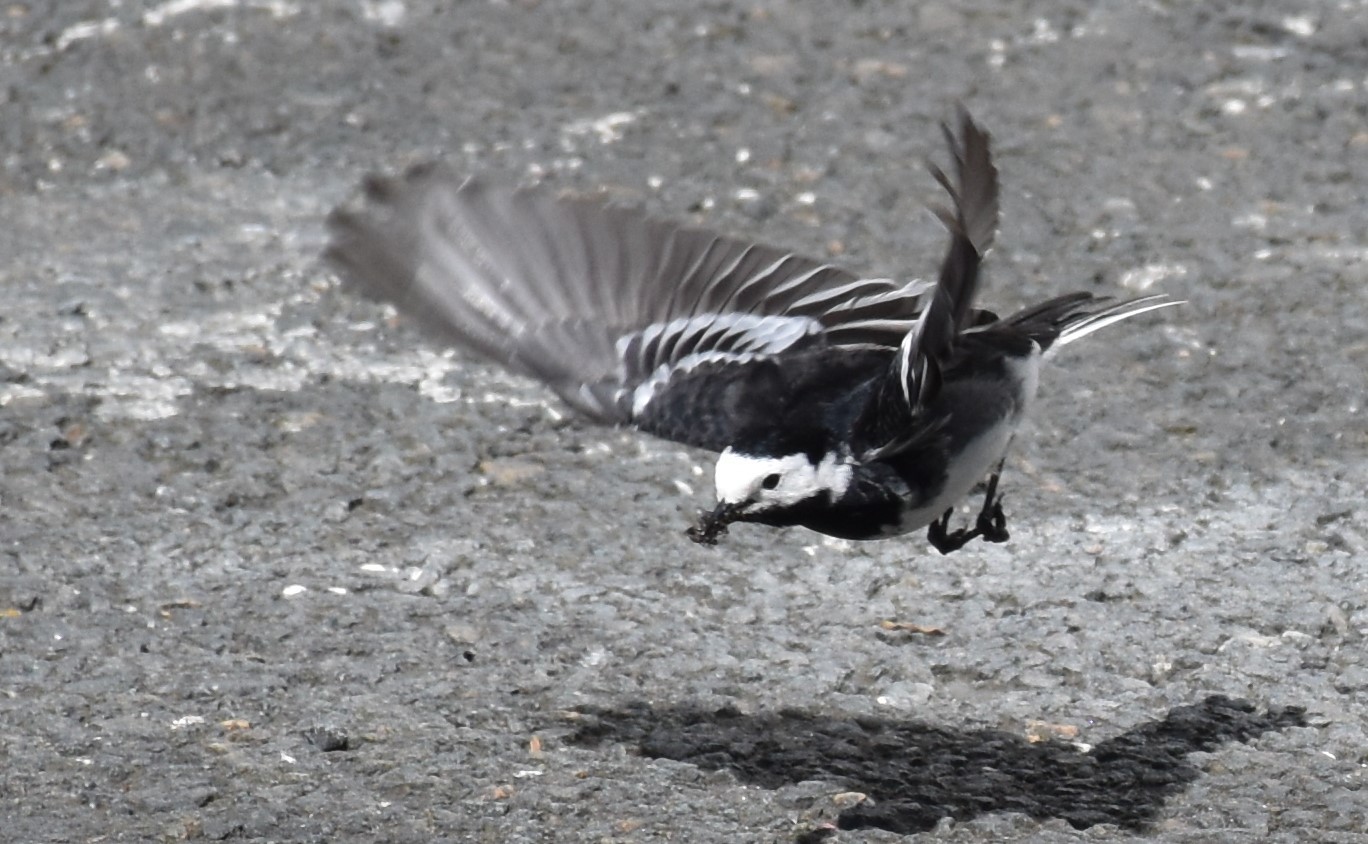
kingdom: Animalia
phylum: Chordata
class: Aves
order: Passeriformes
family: Motacillidae
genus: Motacilla
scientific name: Motacilla alba
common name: White wagtail
